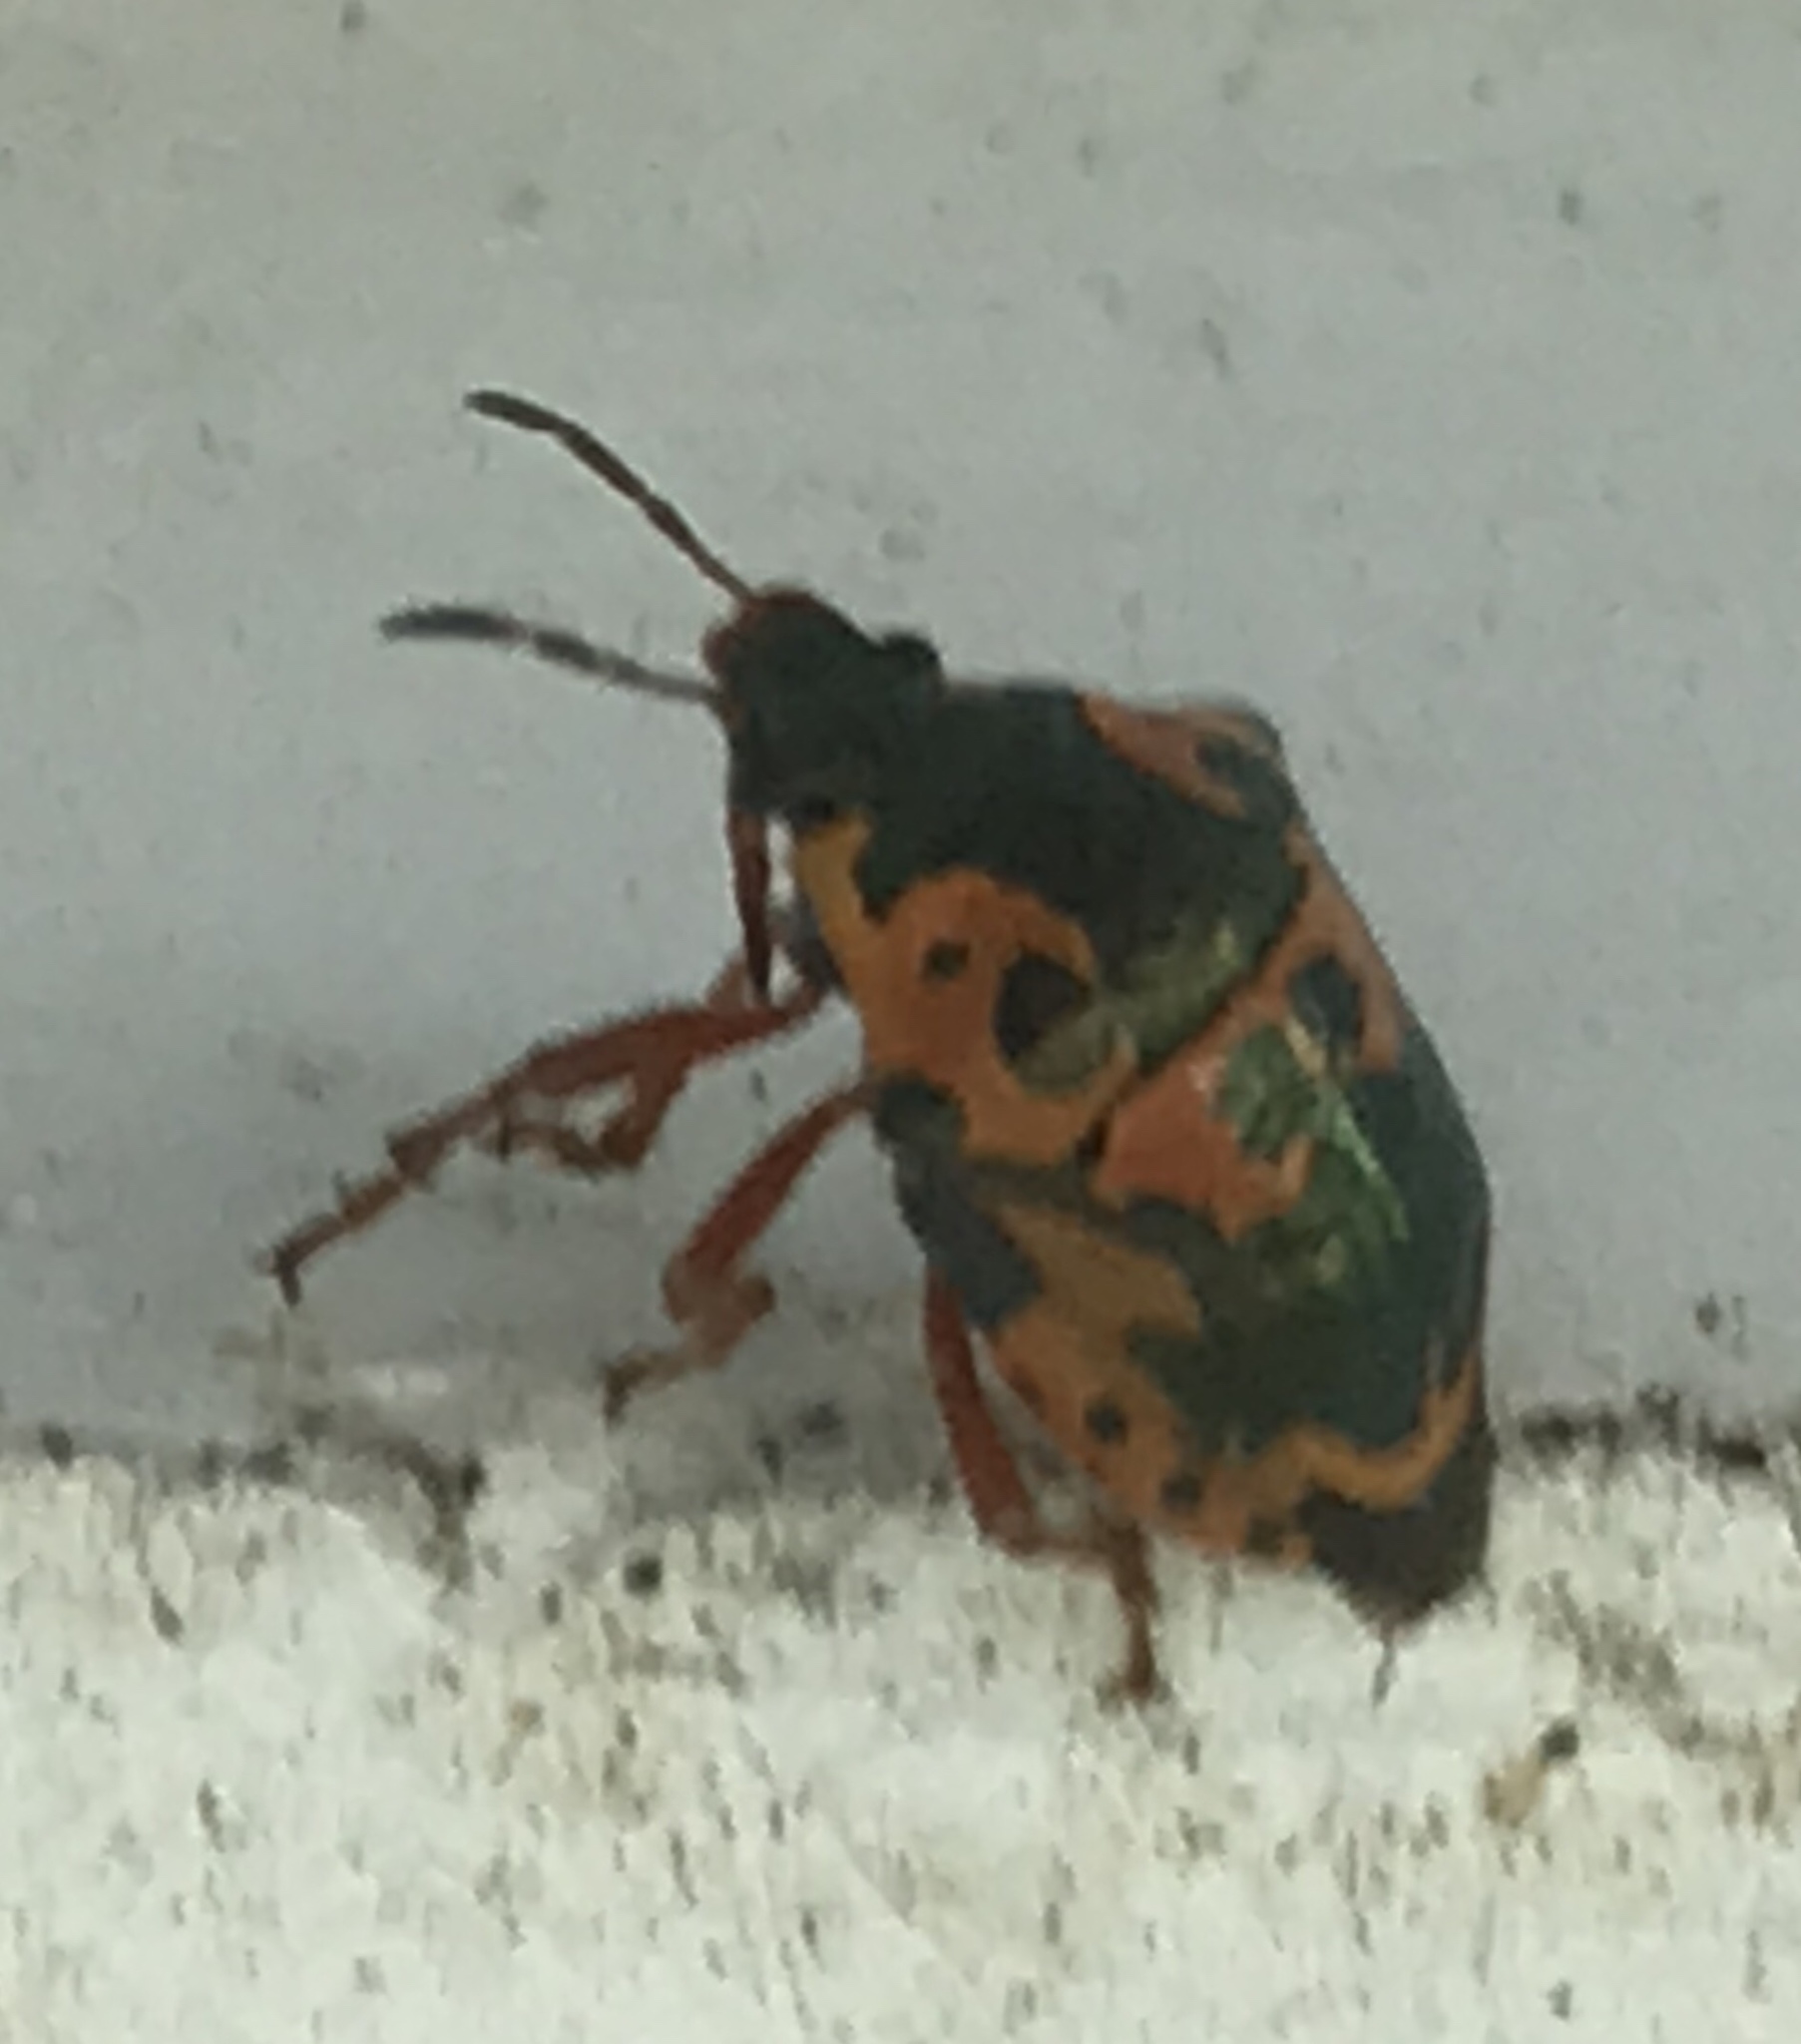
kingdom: Animalia
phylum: Arthropoda
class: Insecta
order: Hemiptera
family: Pentatomidae
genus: Stiretrus
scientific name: Stiretrus anchorago
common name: Anchor stink bug
